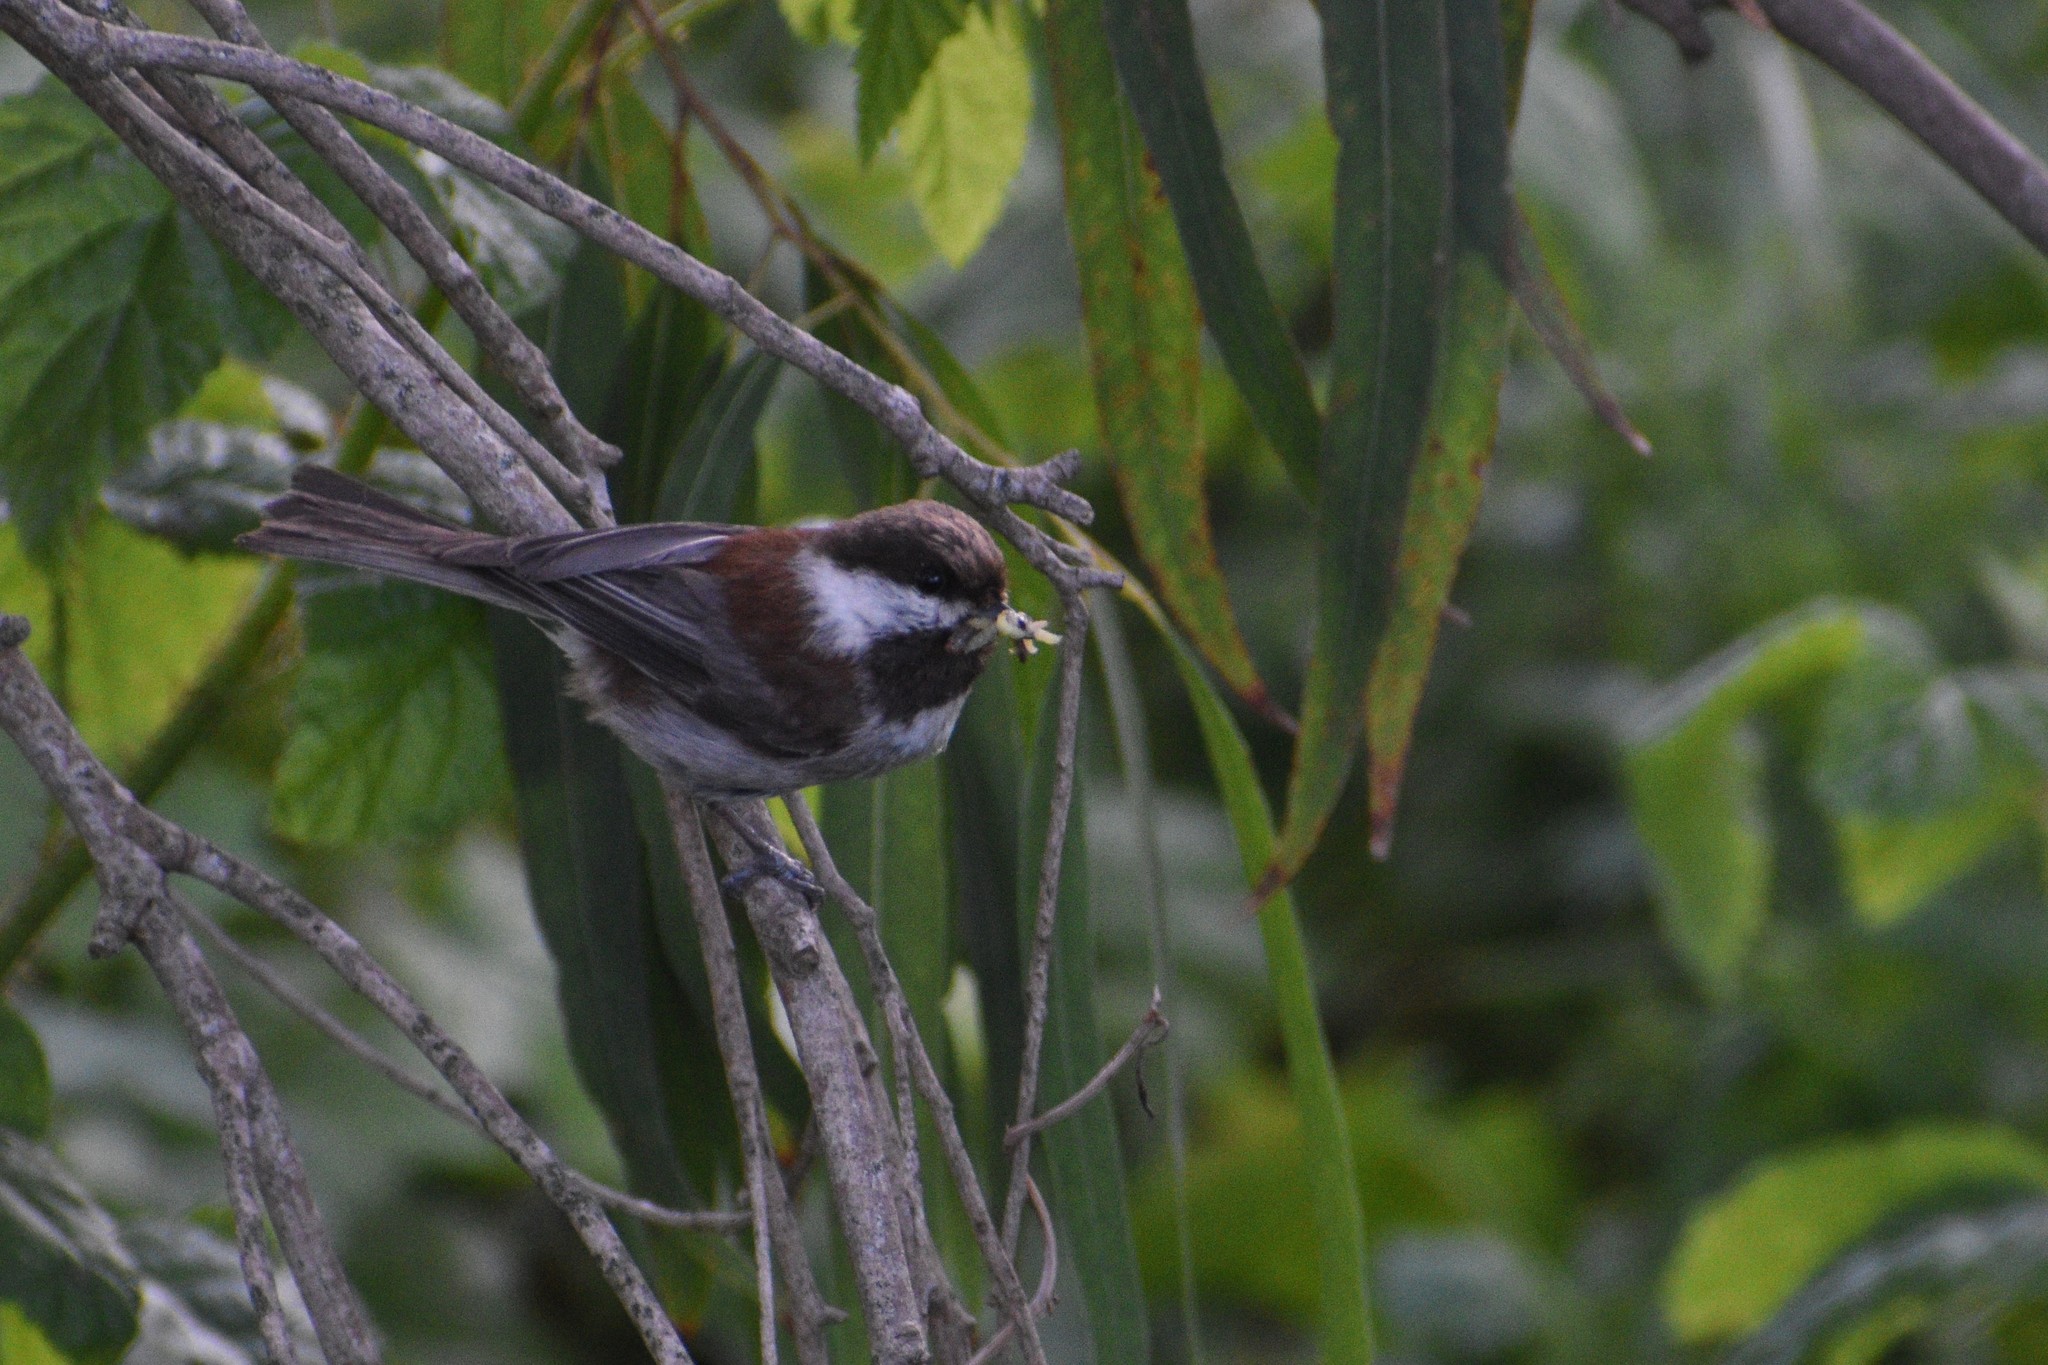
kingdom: Animalia
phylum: Chordata
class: Aves
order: Passeriformes
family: Paridae
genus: Poecile
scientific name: Poecile rufescens
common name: Chestnut-backed chickadee
